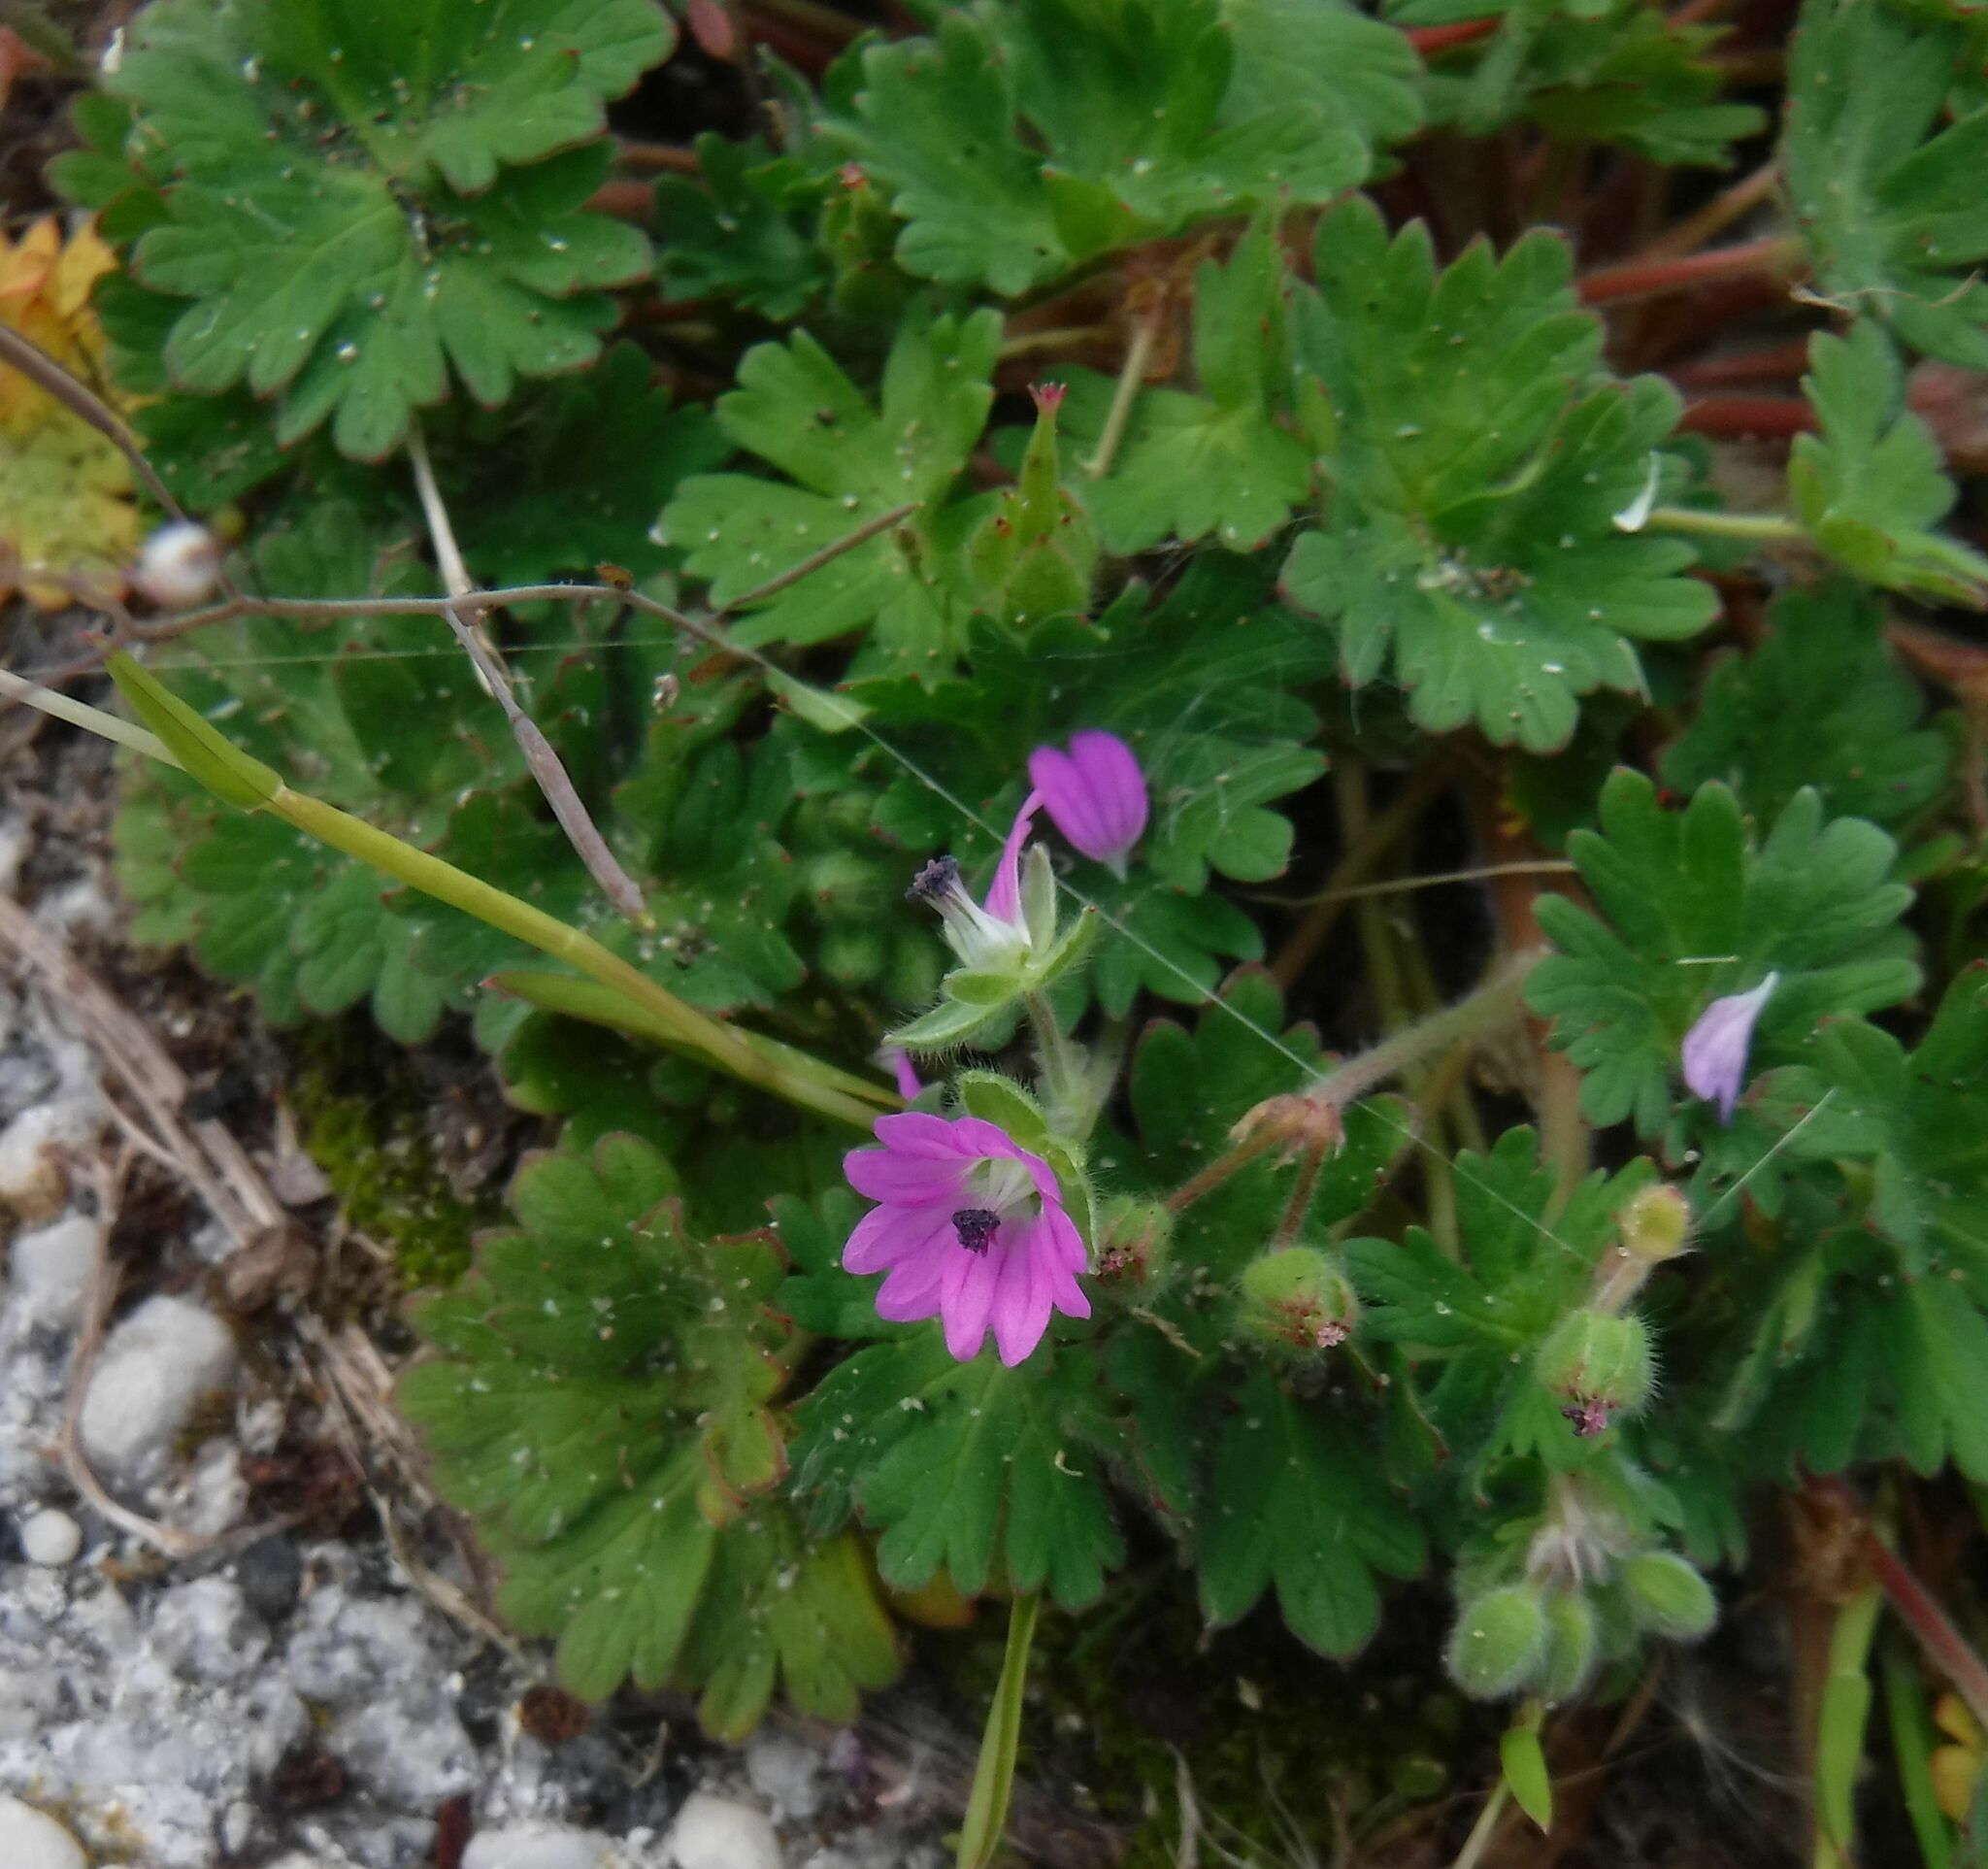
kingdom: Plantae
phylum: Tracheophyta
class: Magnoliopsida
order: Geraniales
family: Geraniaceae
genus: Geranium
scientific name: Geranium molle
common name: Dove's-foot crane's-bill
